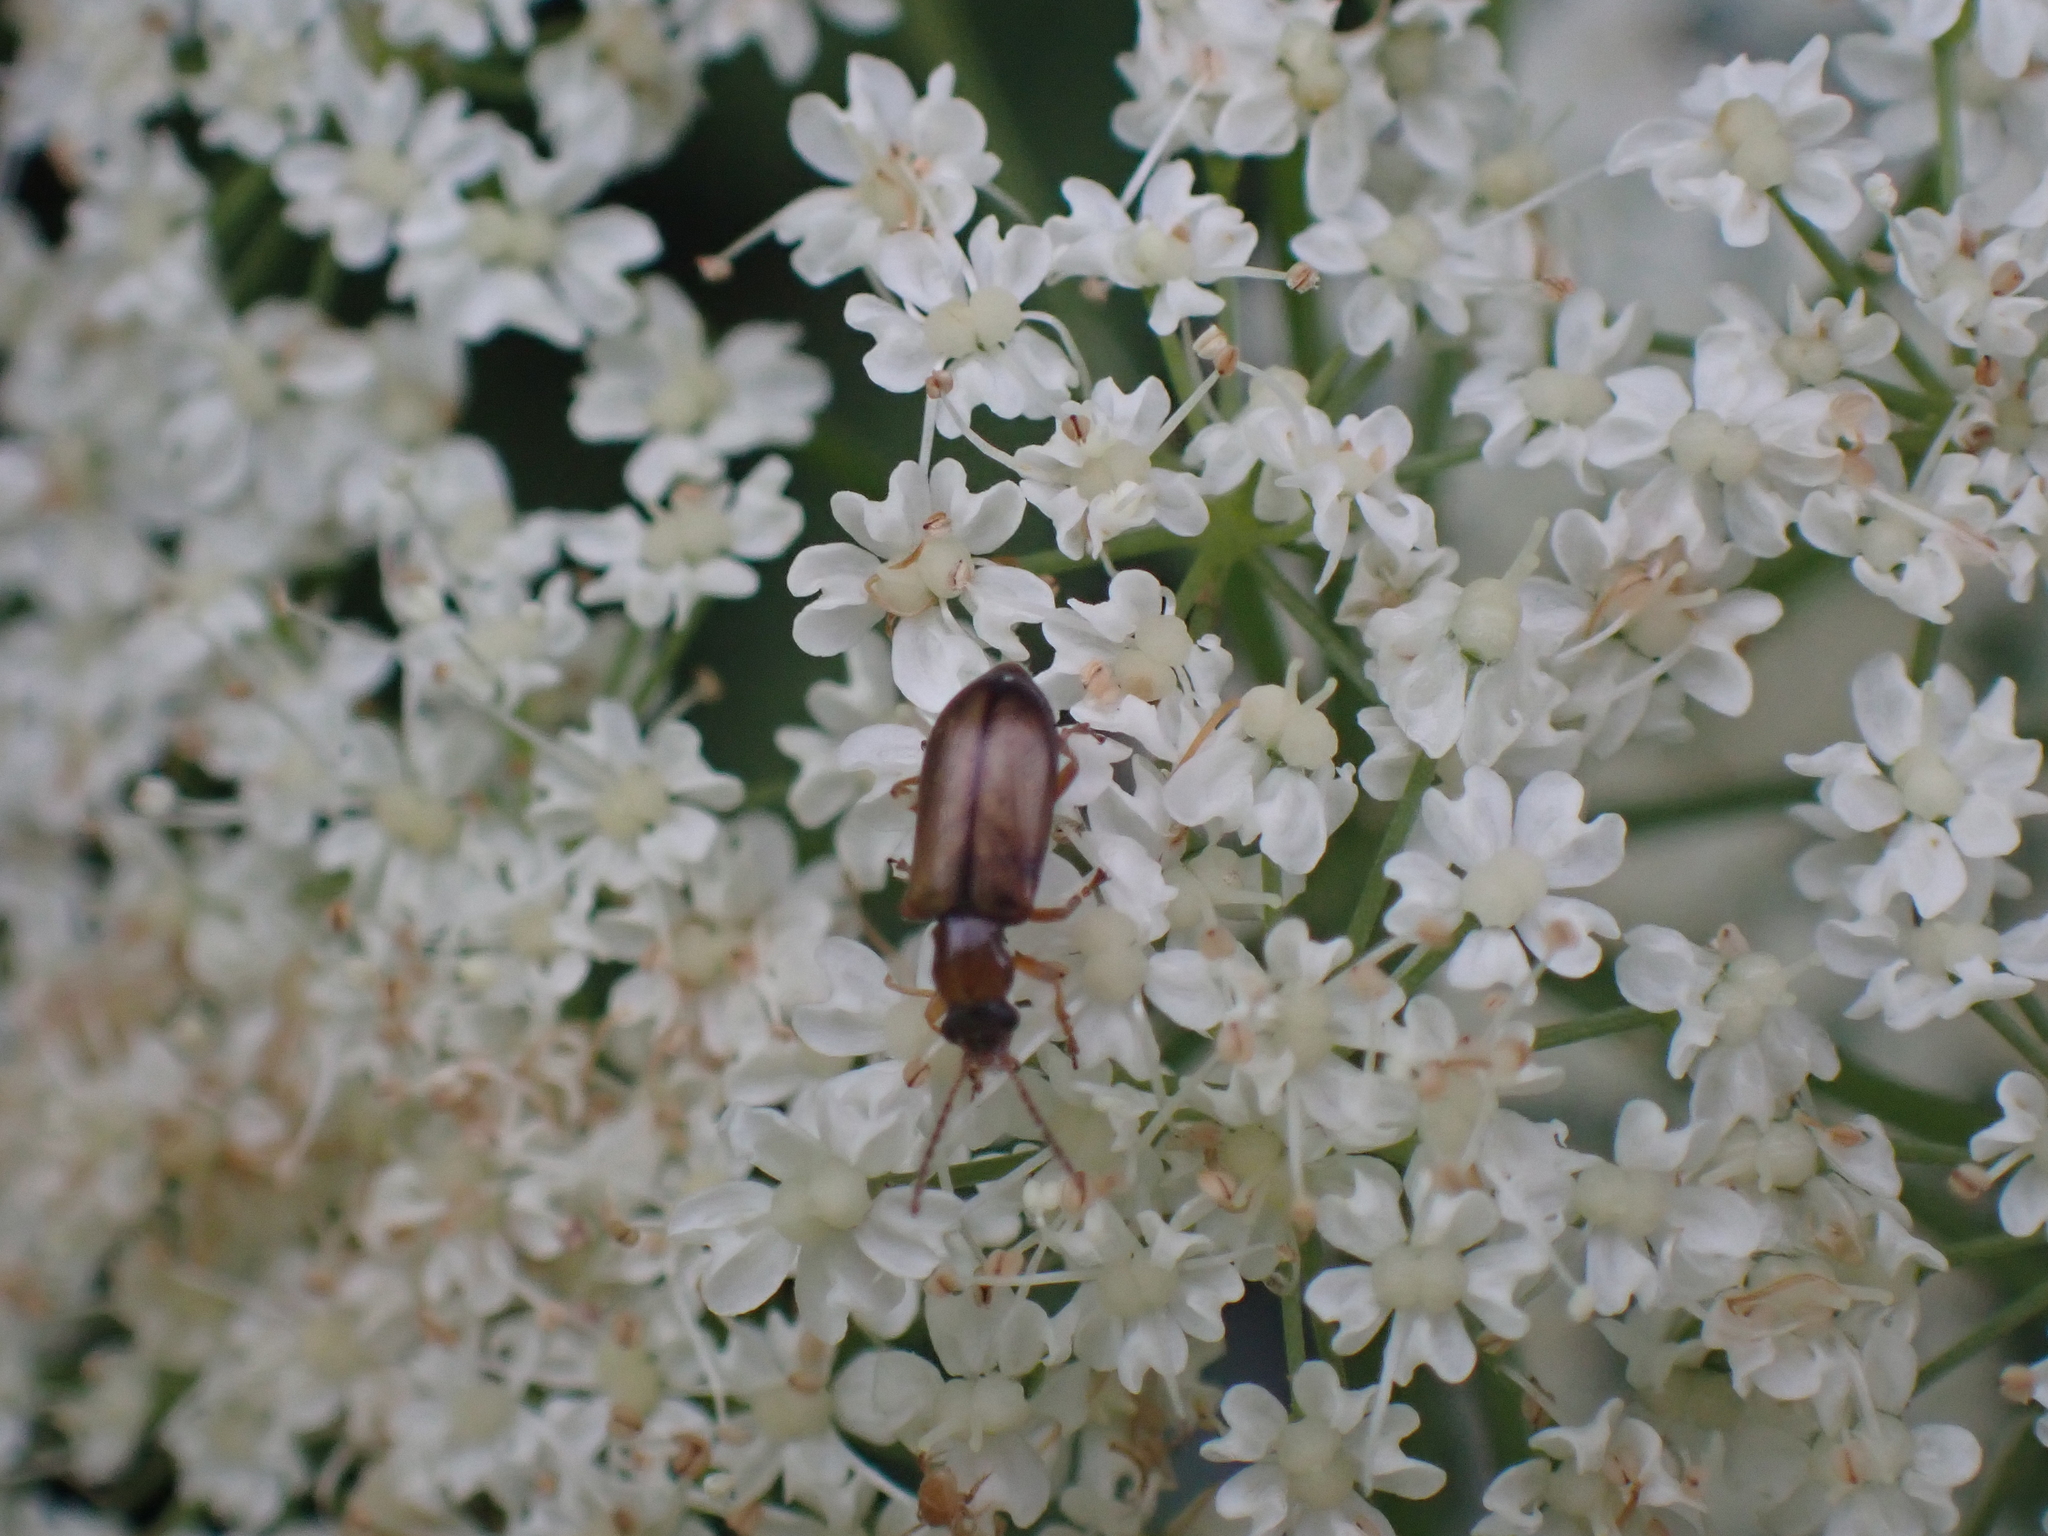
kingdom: Animalia
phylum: Arthropoda
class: Insecta
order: Coleoptera
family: Orsodacnidae
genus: Orsodacne
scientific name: Orsodacne cerasi
